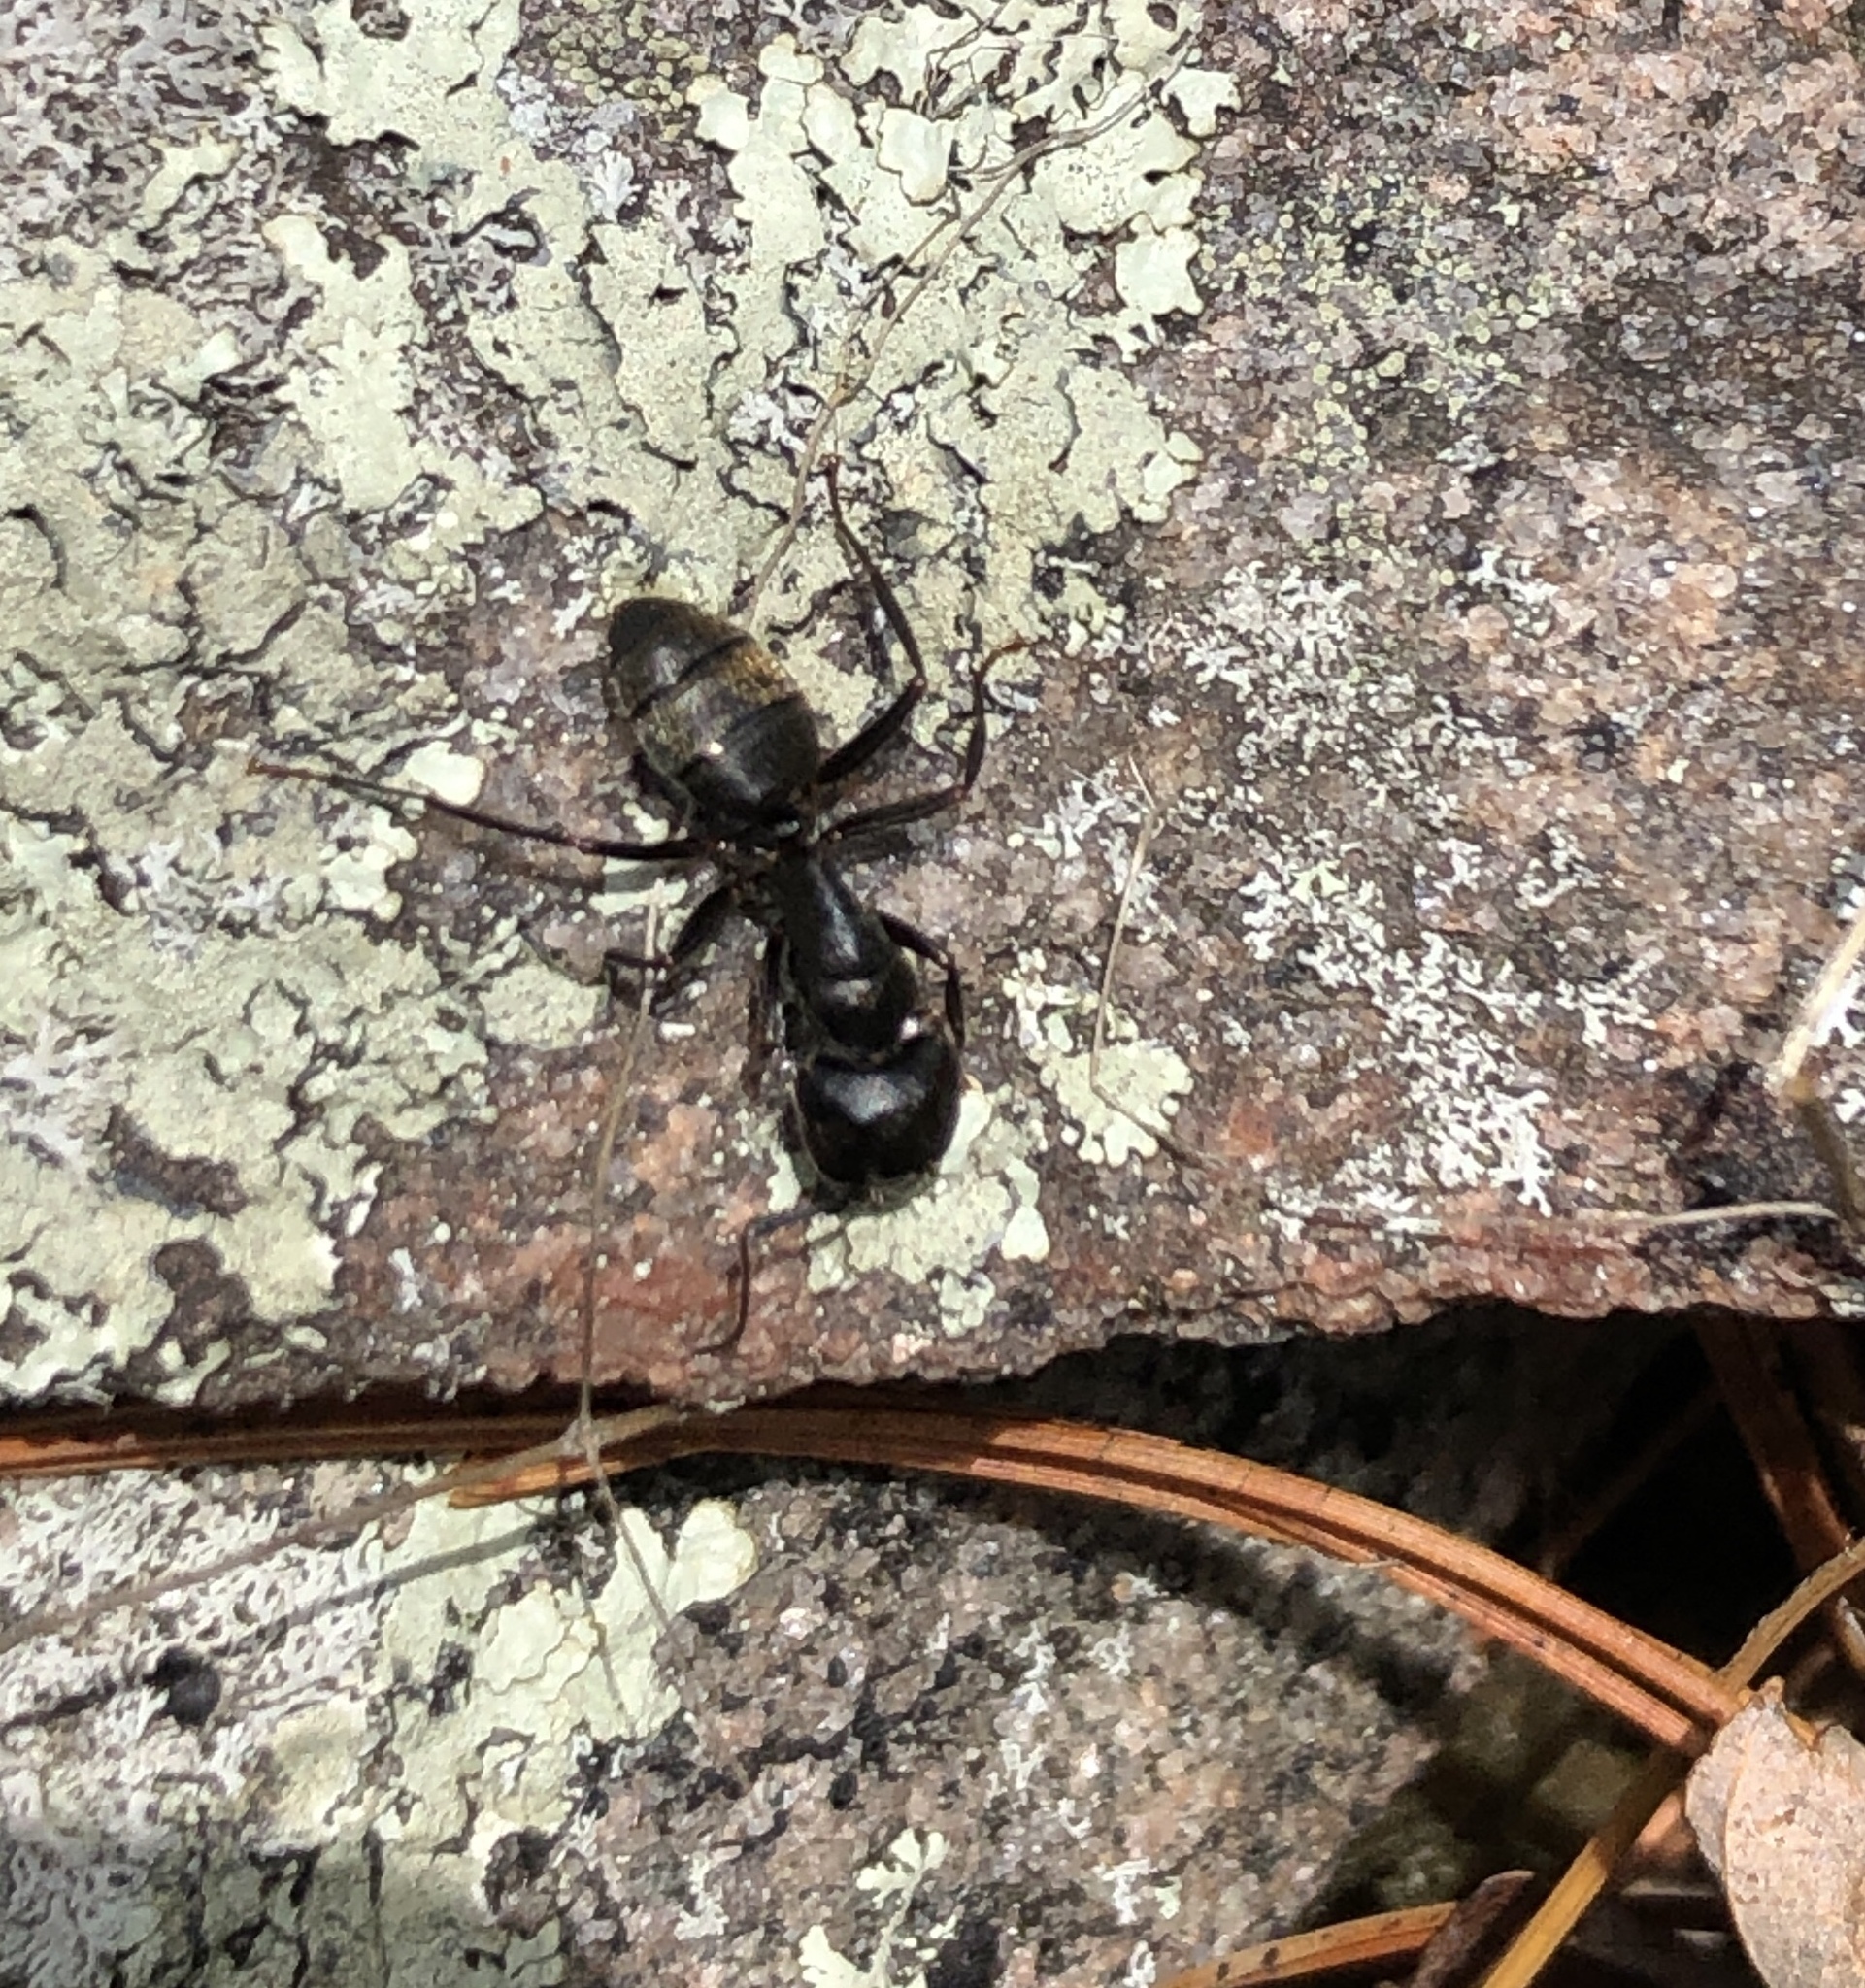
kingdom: Animalia
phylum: Arthropoda
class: Insecta
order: Hymenoptera
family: Formicidae
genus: Camponotus
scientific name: Camponotus pennsylvanicus
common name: Black carpenter ant
